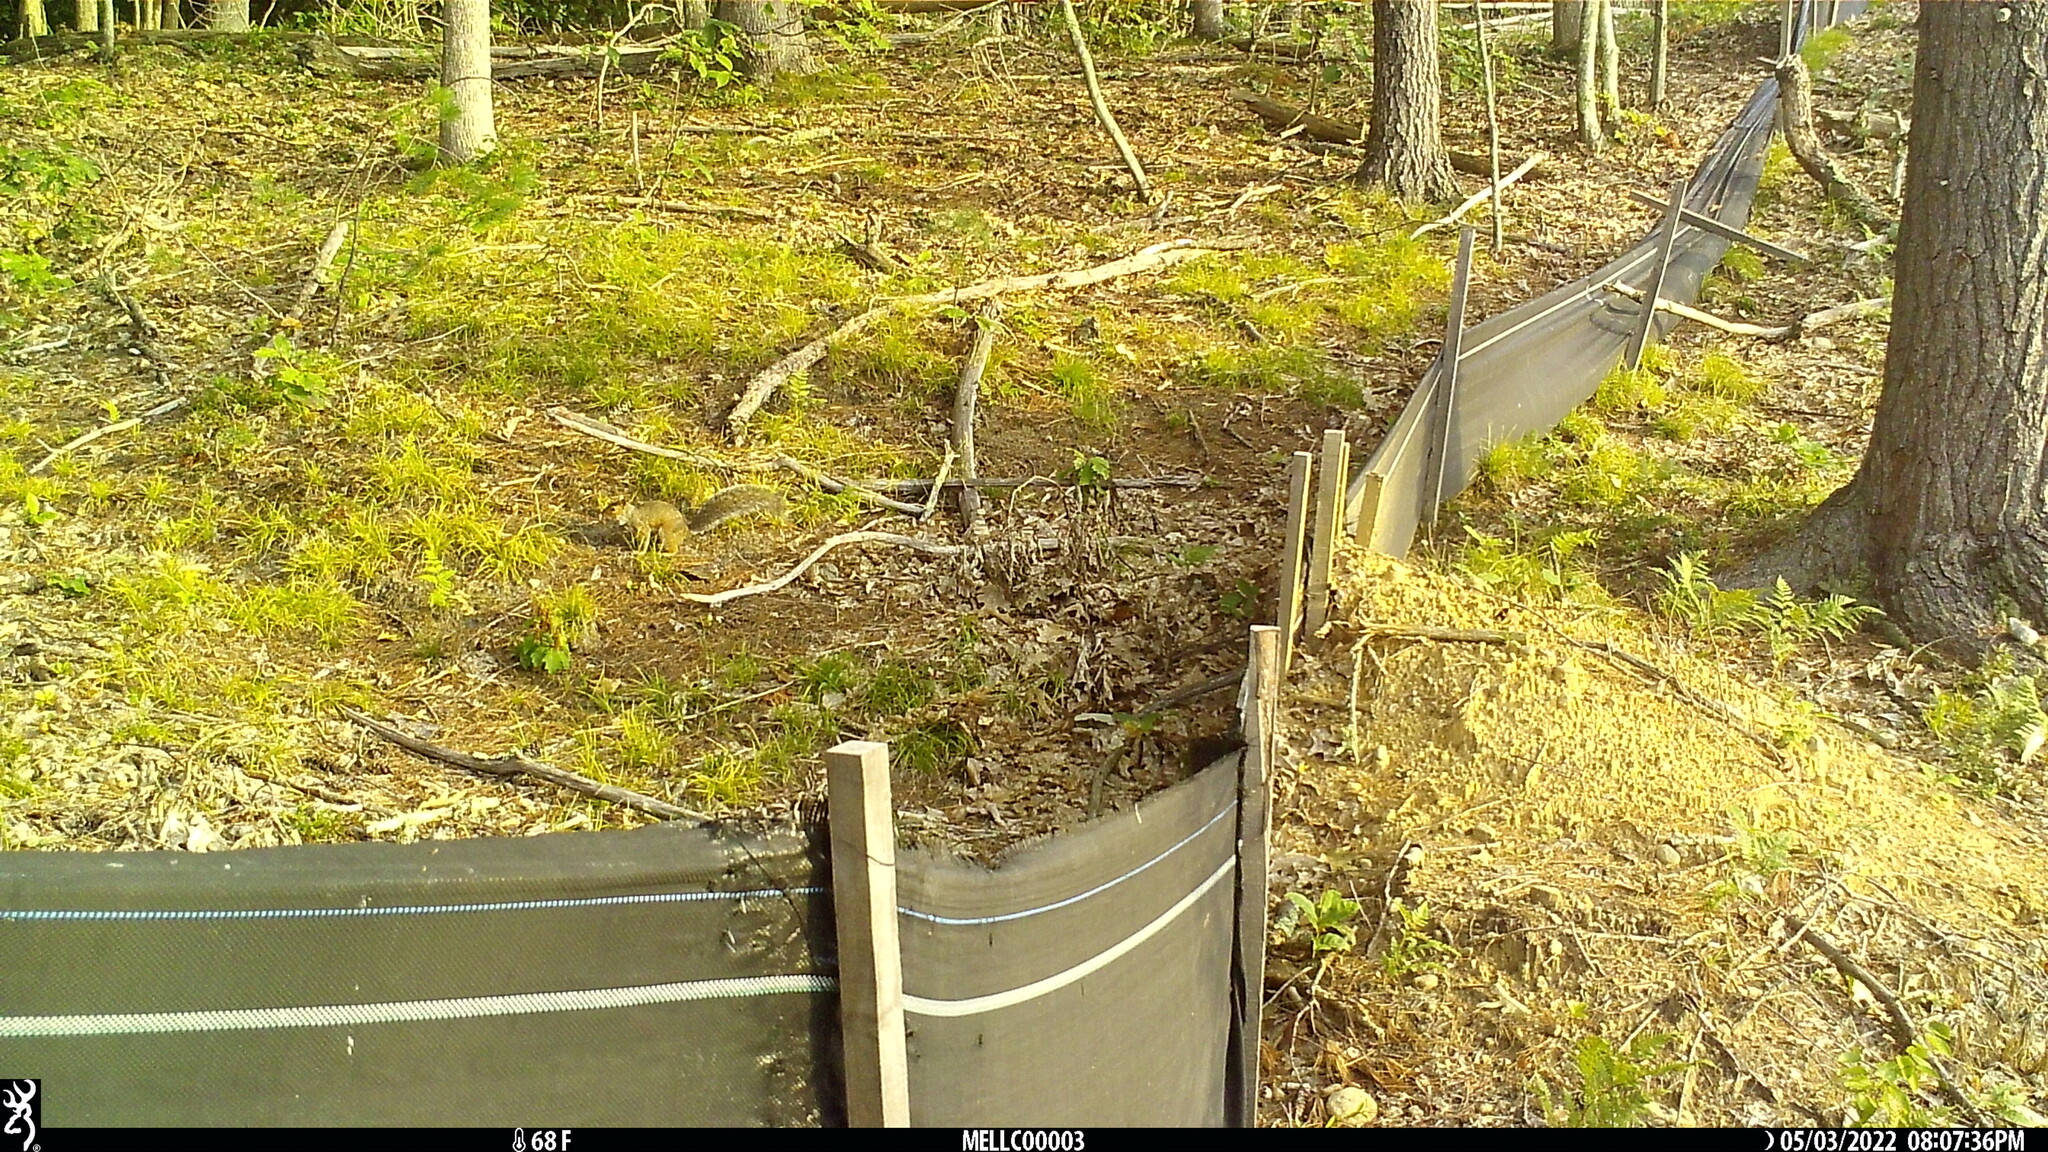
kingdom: Animalia
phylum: Chordata
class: Mammalia
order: Rodentia
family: Sciuridae
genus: Sciurus
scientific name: Sciurus carolinensis
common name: Eastern gray squirrel
